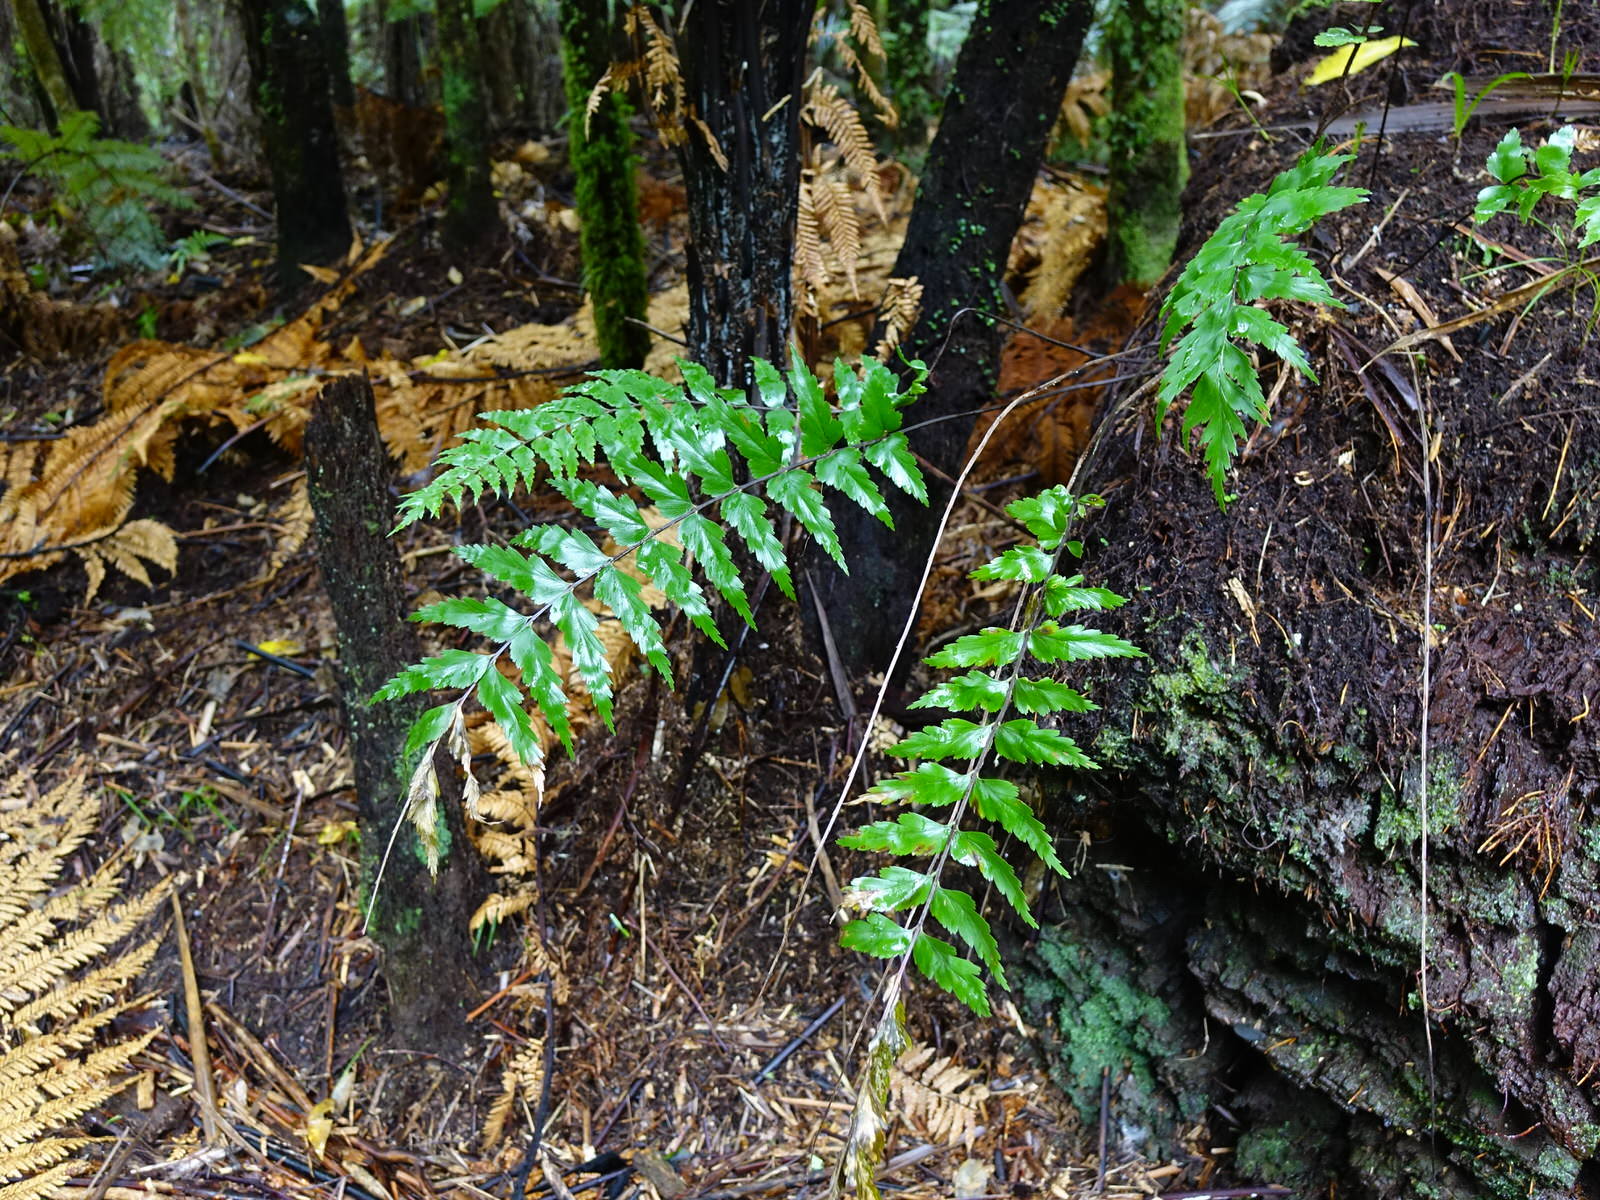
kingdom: Plantae
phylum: Tracheophyta
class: Polypodiopsida
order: Polypodiales
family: Aspleniaceae
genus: Asplenium
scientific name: Asplenium polyodon
